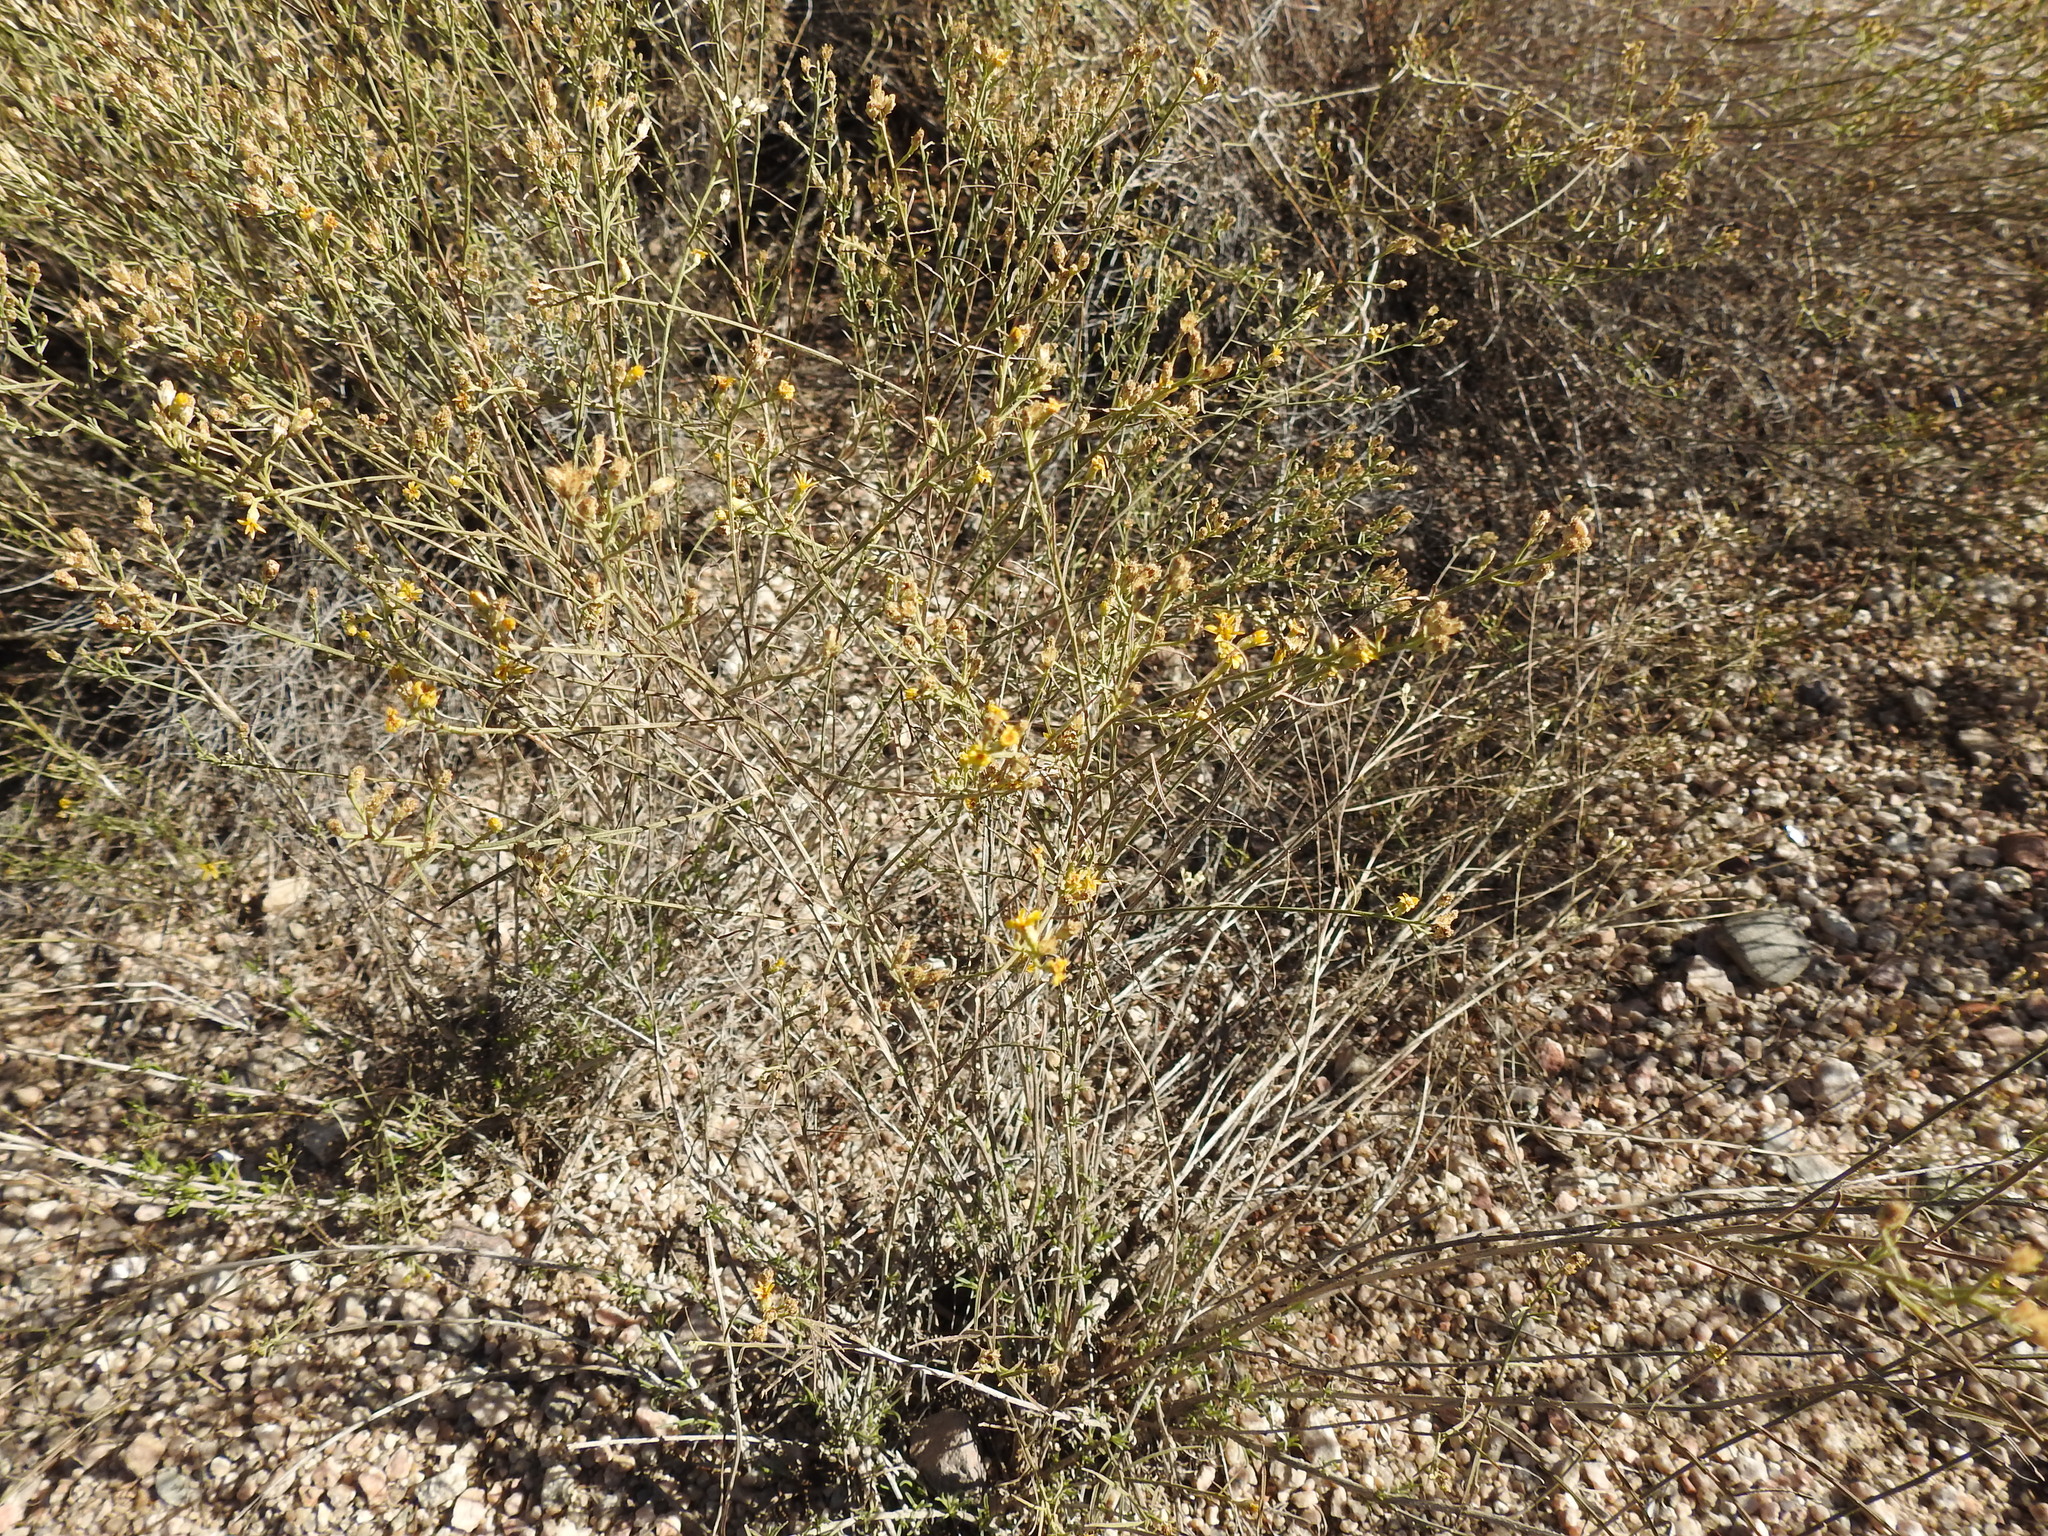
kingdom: Plantae
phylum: Tracheophyta
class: Magnoliopsida
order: Asterales
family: Asteraceae
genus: Gutierrezia
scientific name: Gutierrezia sarothrae
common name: Broom snakeweed
